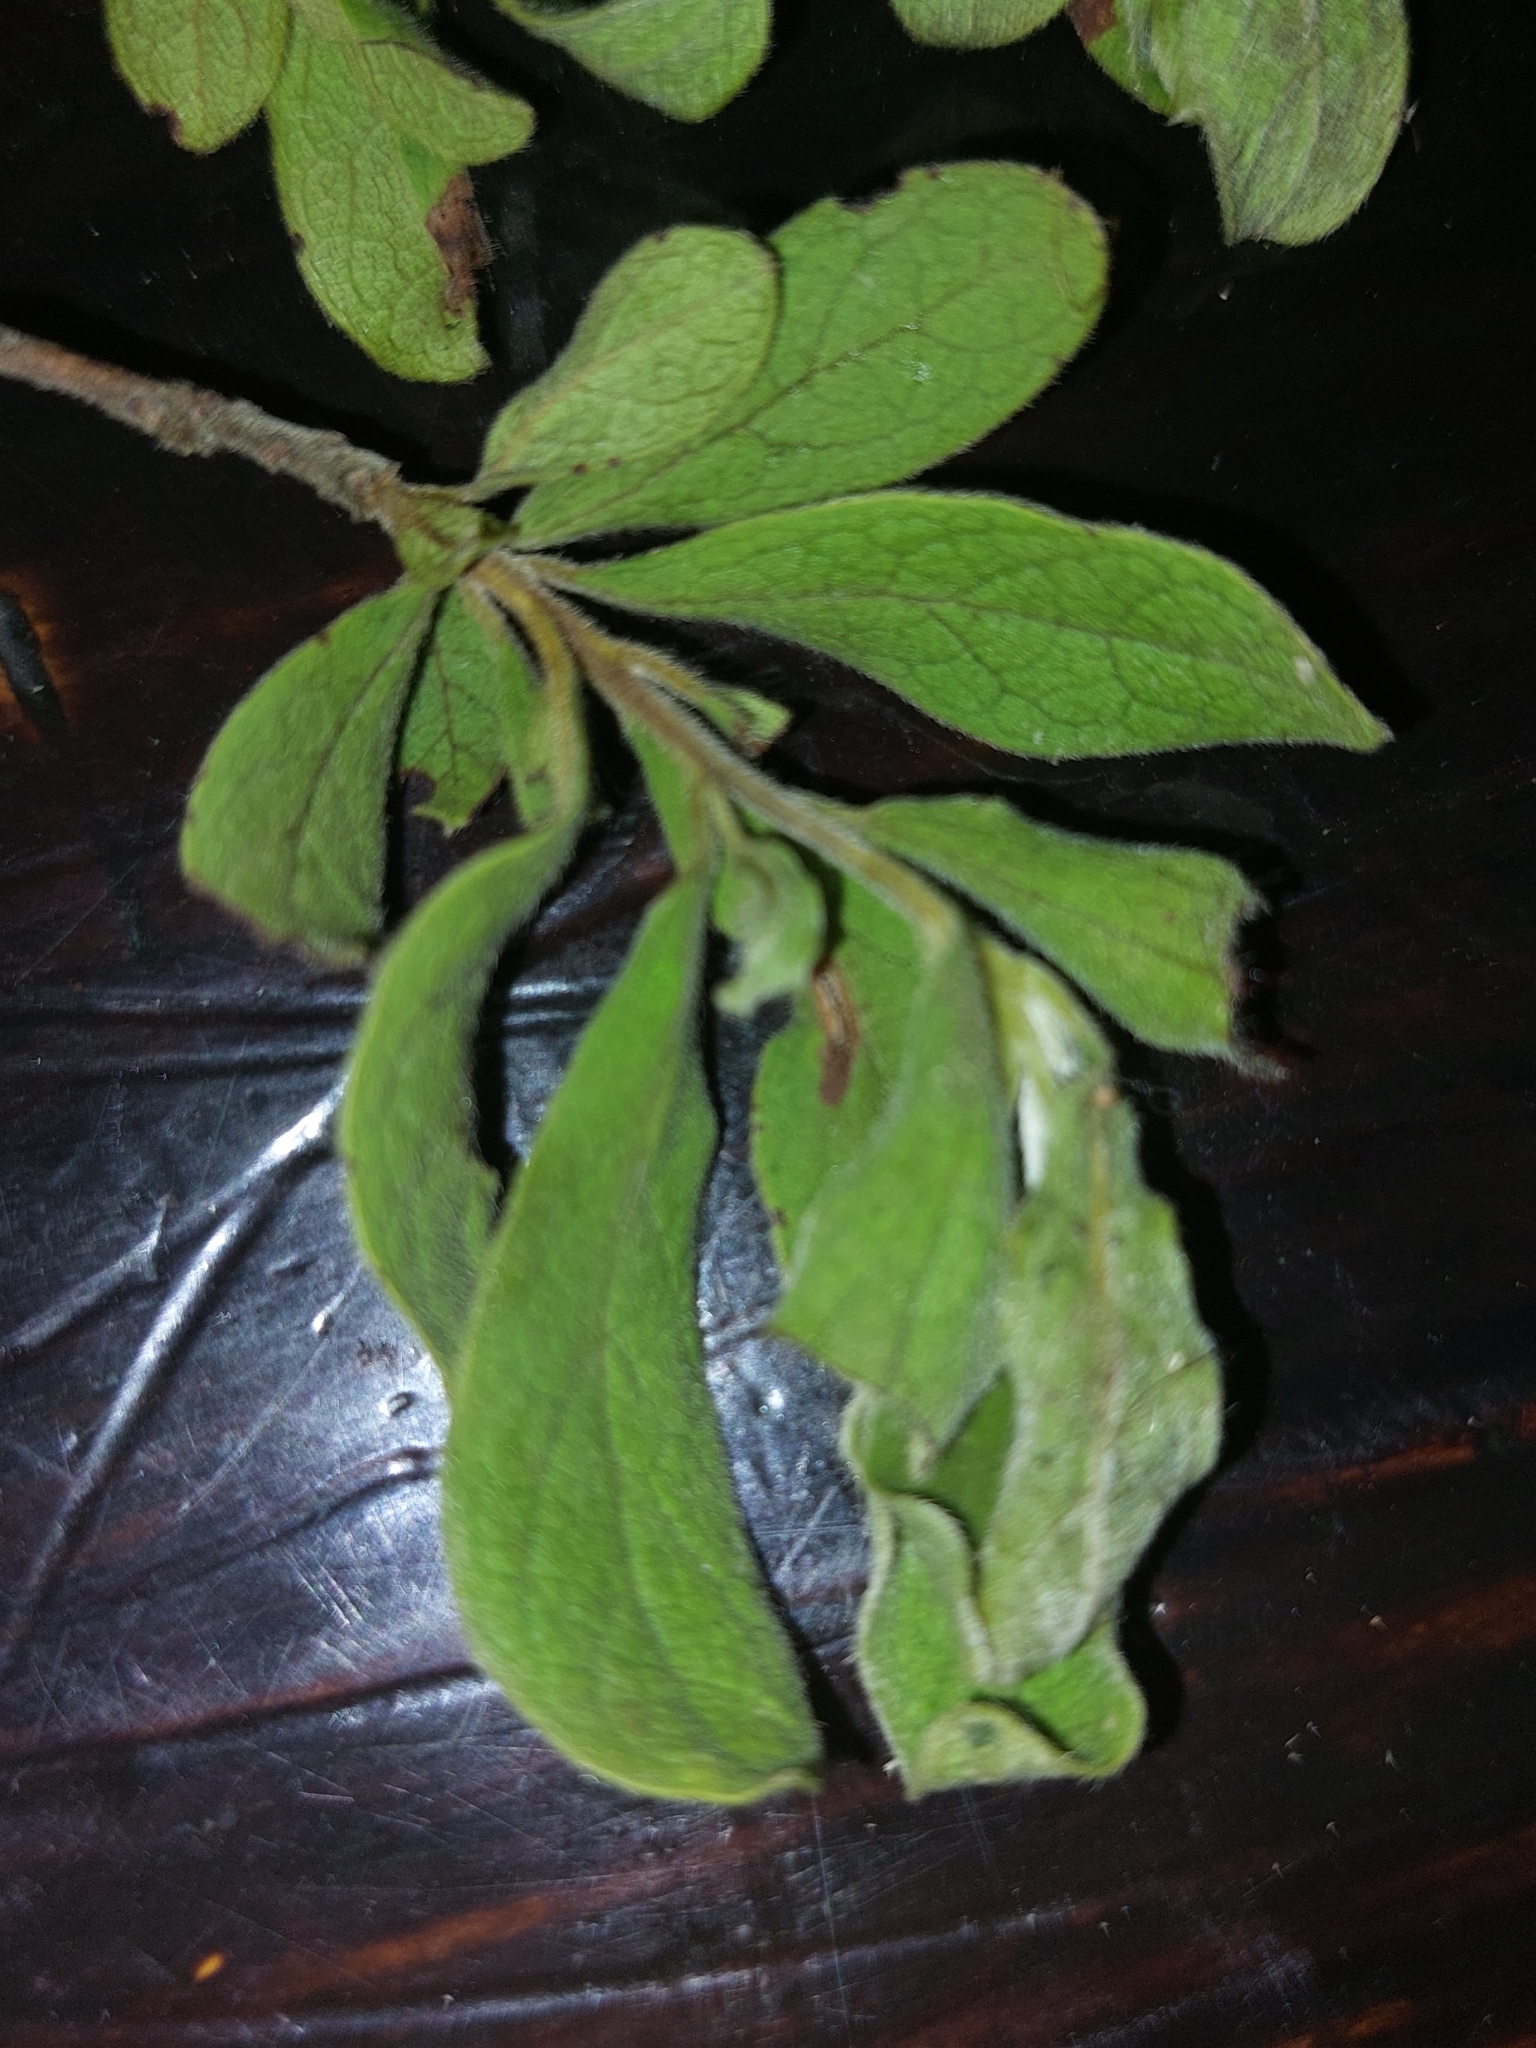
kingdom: Plantae
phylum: Tracheophyta
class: Magnoliopsida
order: Ericales
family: Ebenaceae
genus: Diospyros
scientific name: Diospyros lycioides
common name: Red star apple
